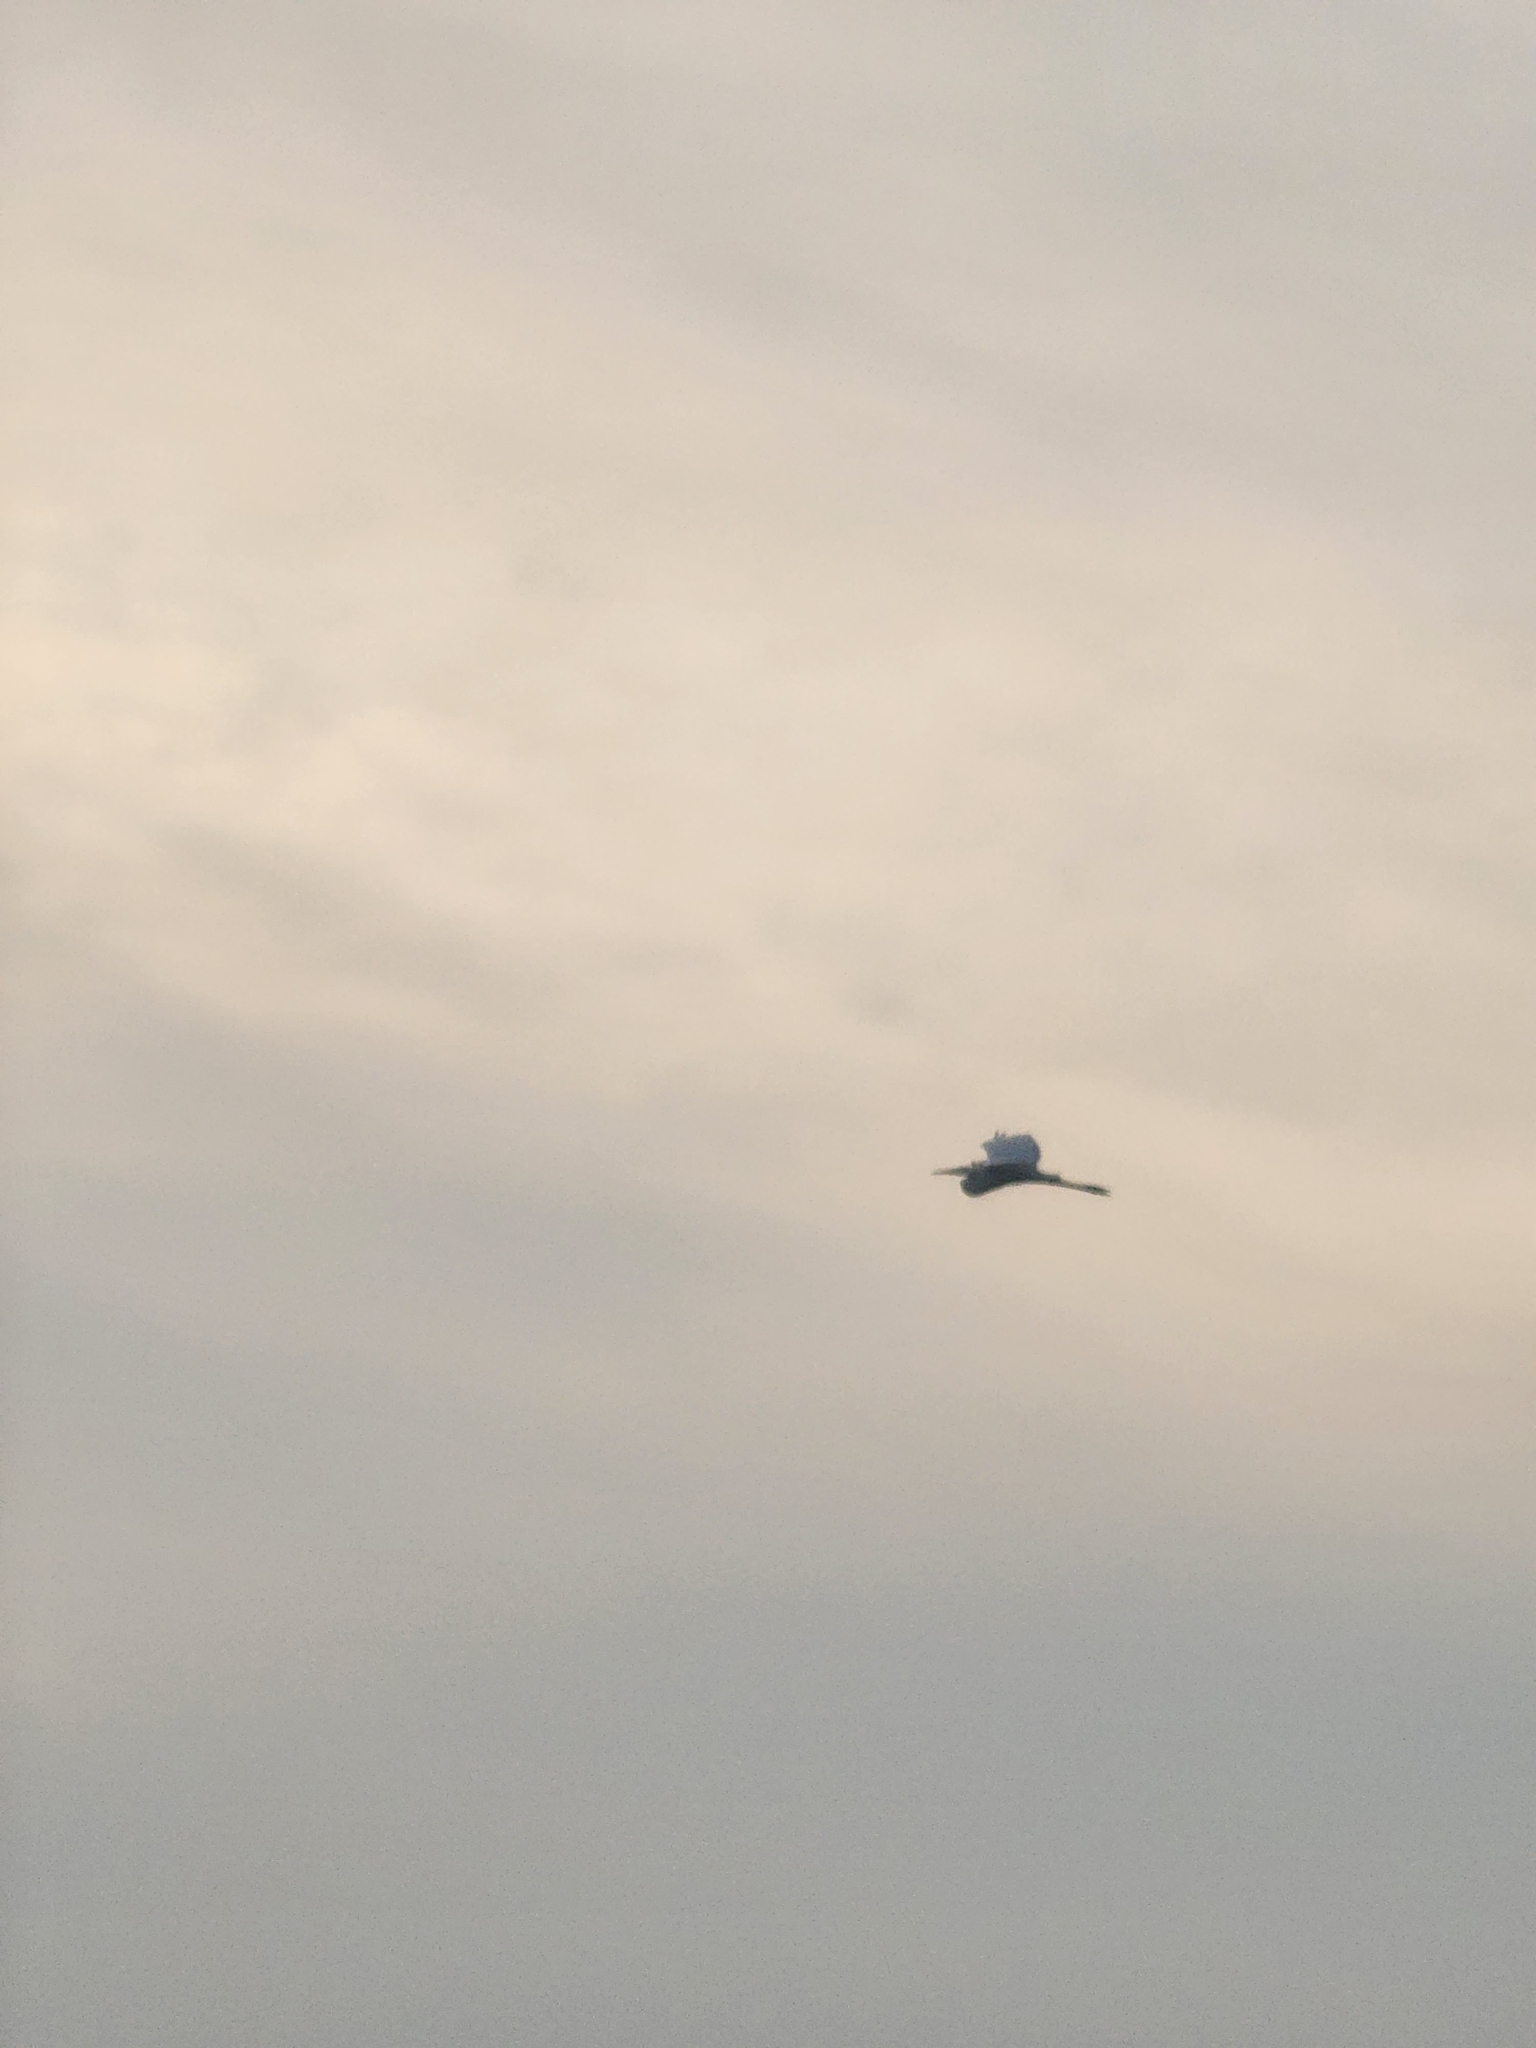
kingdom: Animalia
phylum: Chordata
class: Aves
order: Pelecaniformes
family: Ardeidae
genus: Ardea
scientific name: Ardea herodias
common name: Great blue heron
